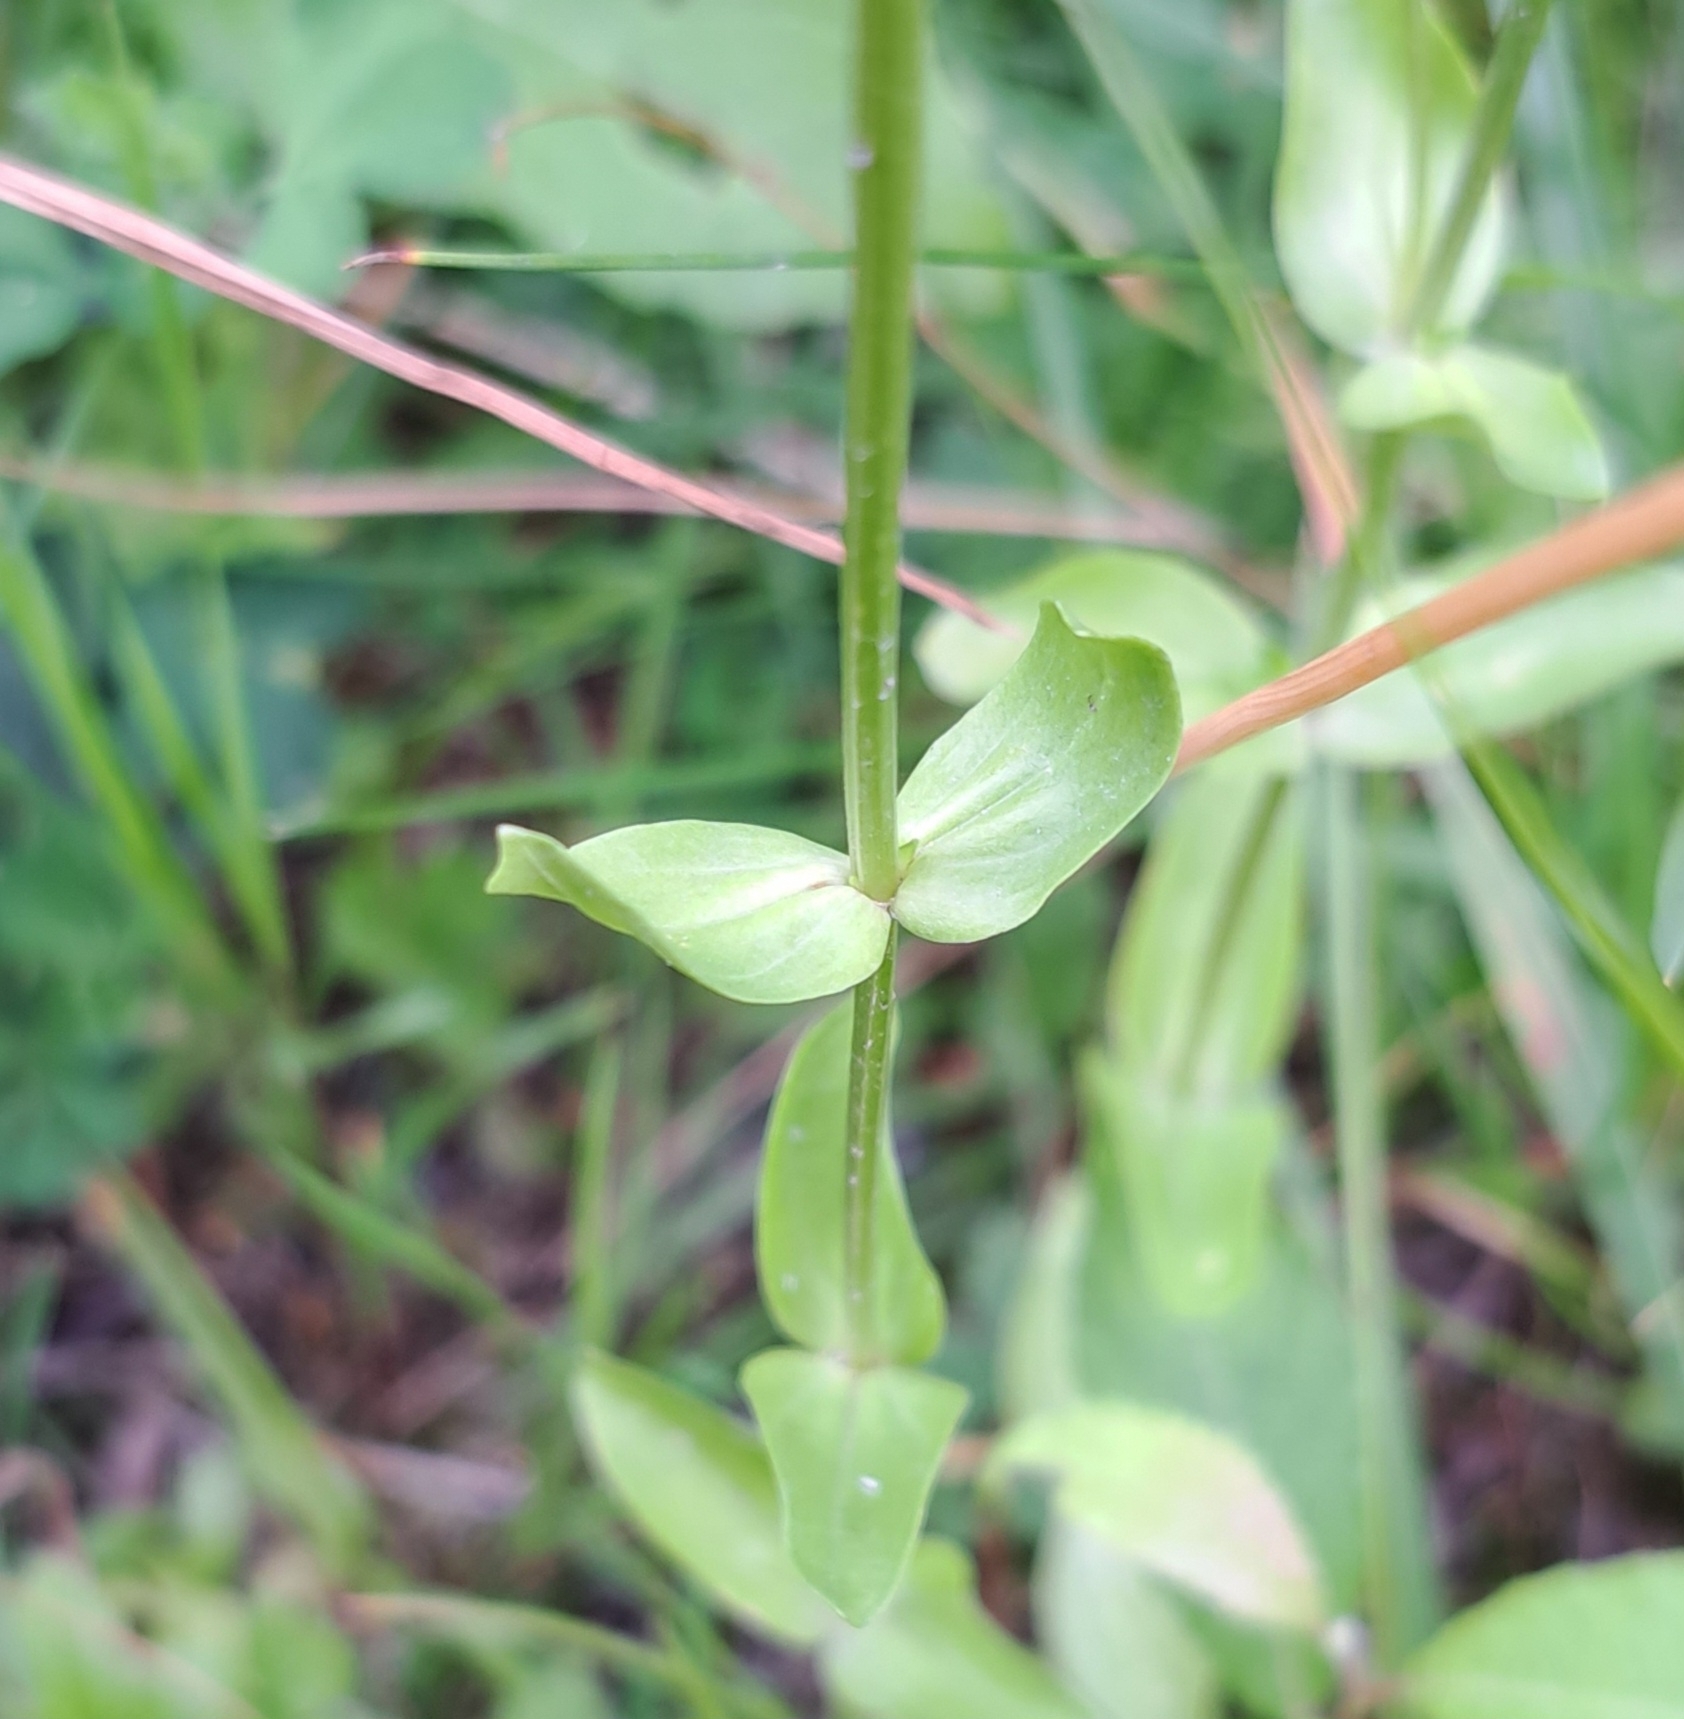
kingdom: Plantae
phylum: Tracheophyta
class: Magnoliopsida
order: Gentianales
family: Gentianaceae
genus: Centaurium
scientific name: Centaurium erythraea
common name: Common centaury
